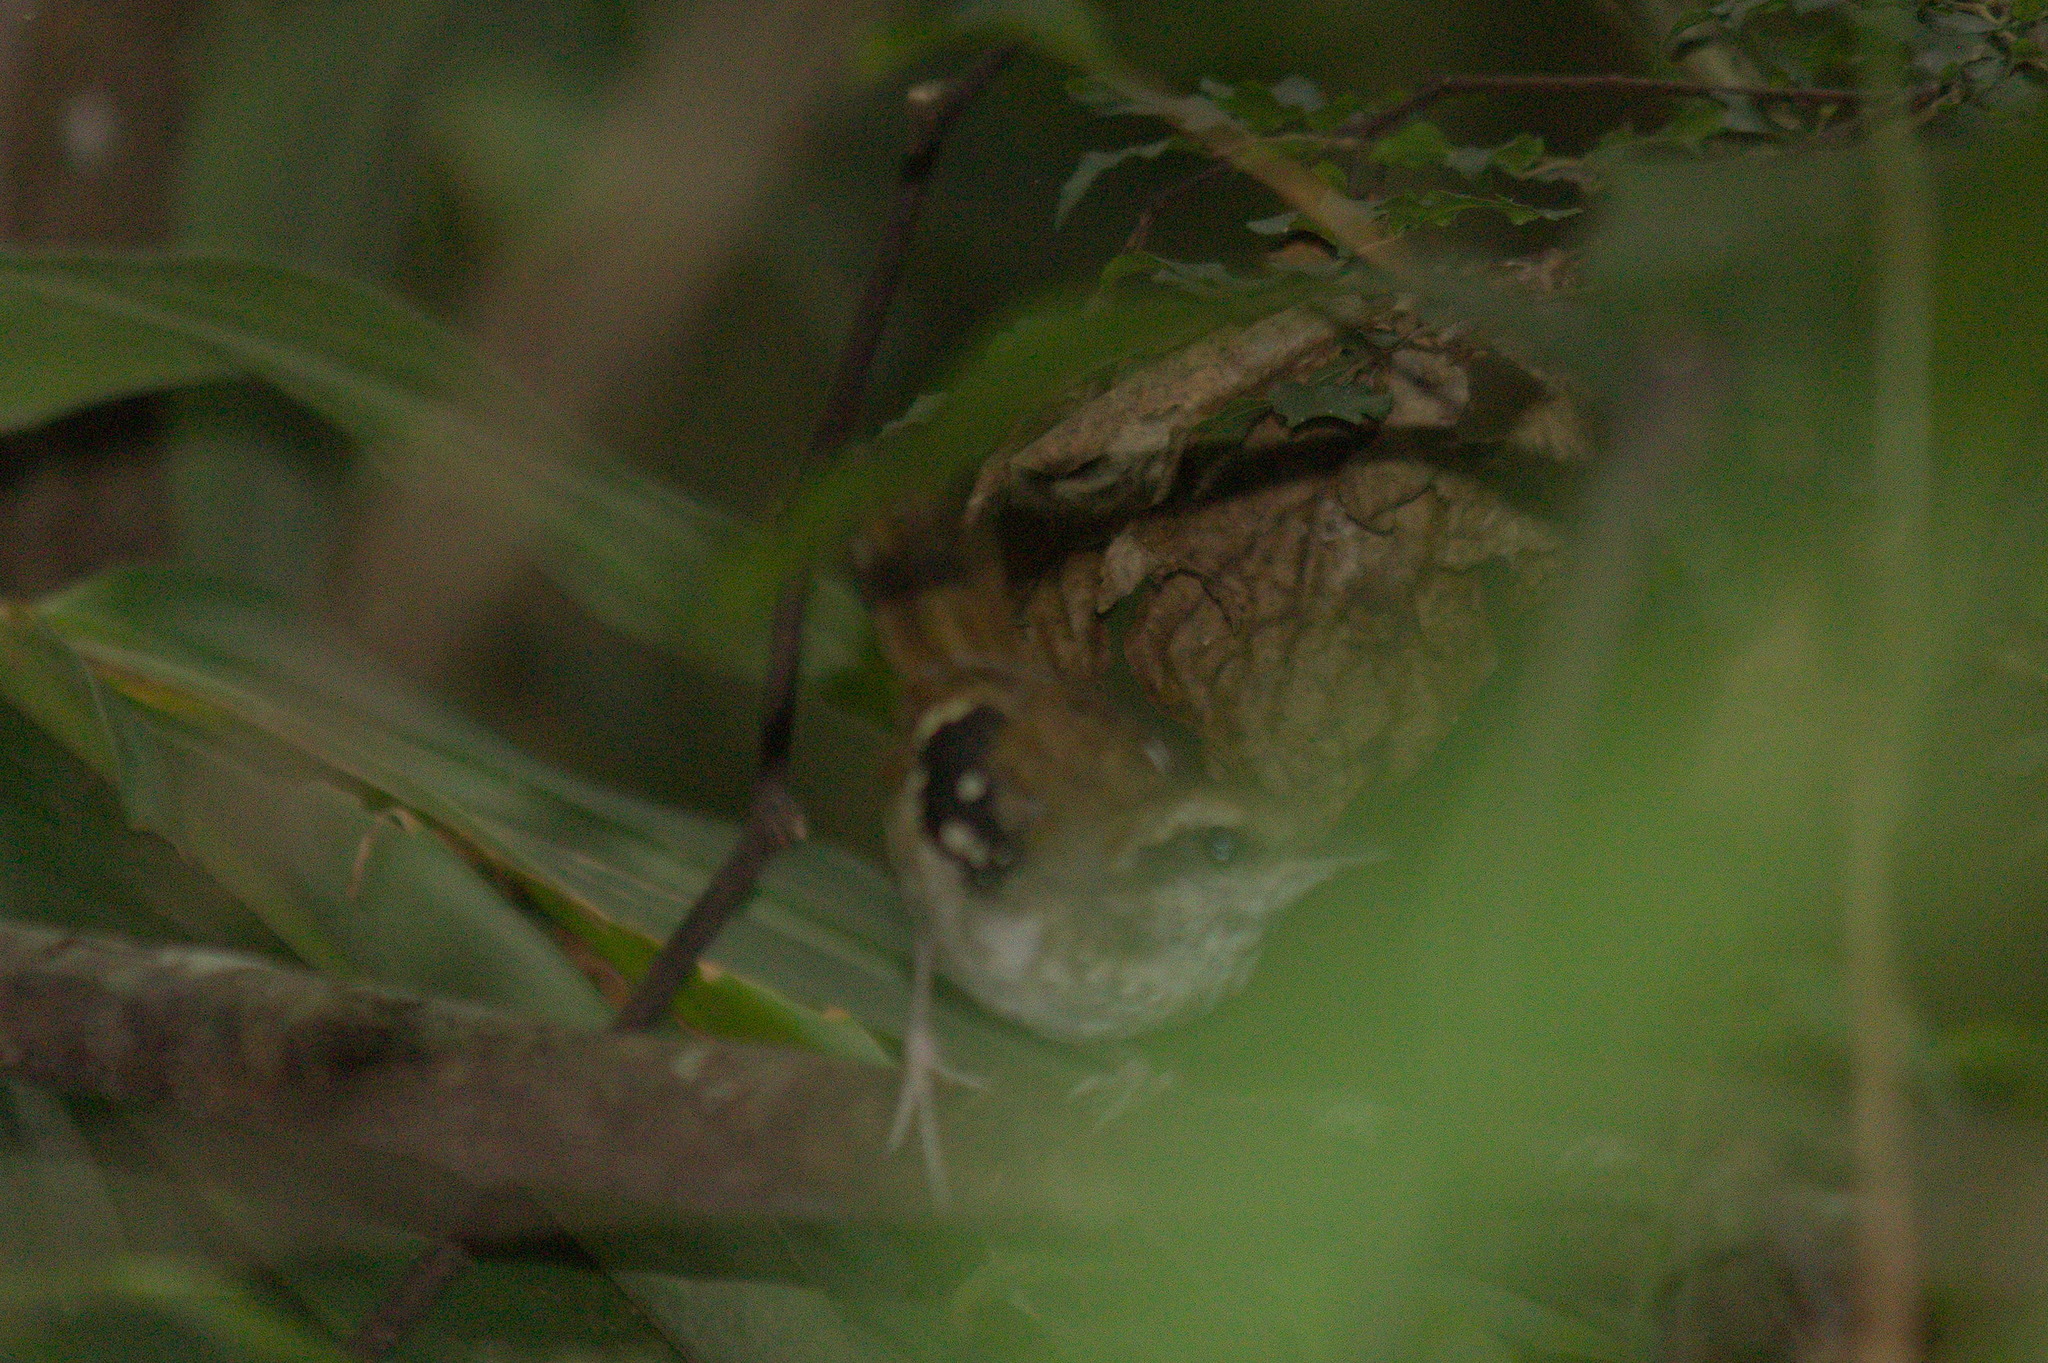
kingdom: Animalia
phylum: Chordata
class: Aves
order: Passeriformes
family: Thamnophilidae
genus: Myrmeciza
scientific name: Myrmeciza squamosa
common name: Squamate antbird
